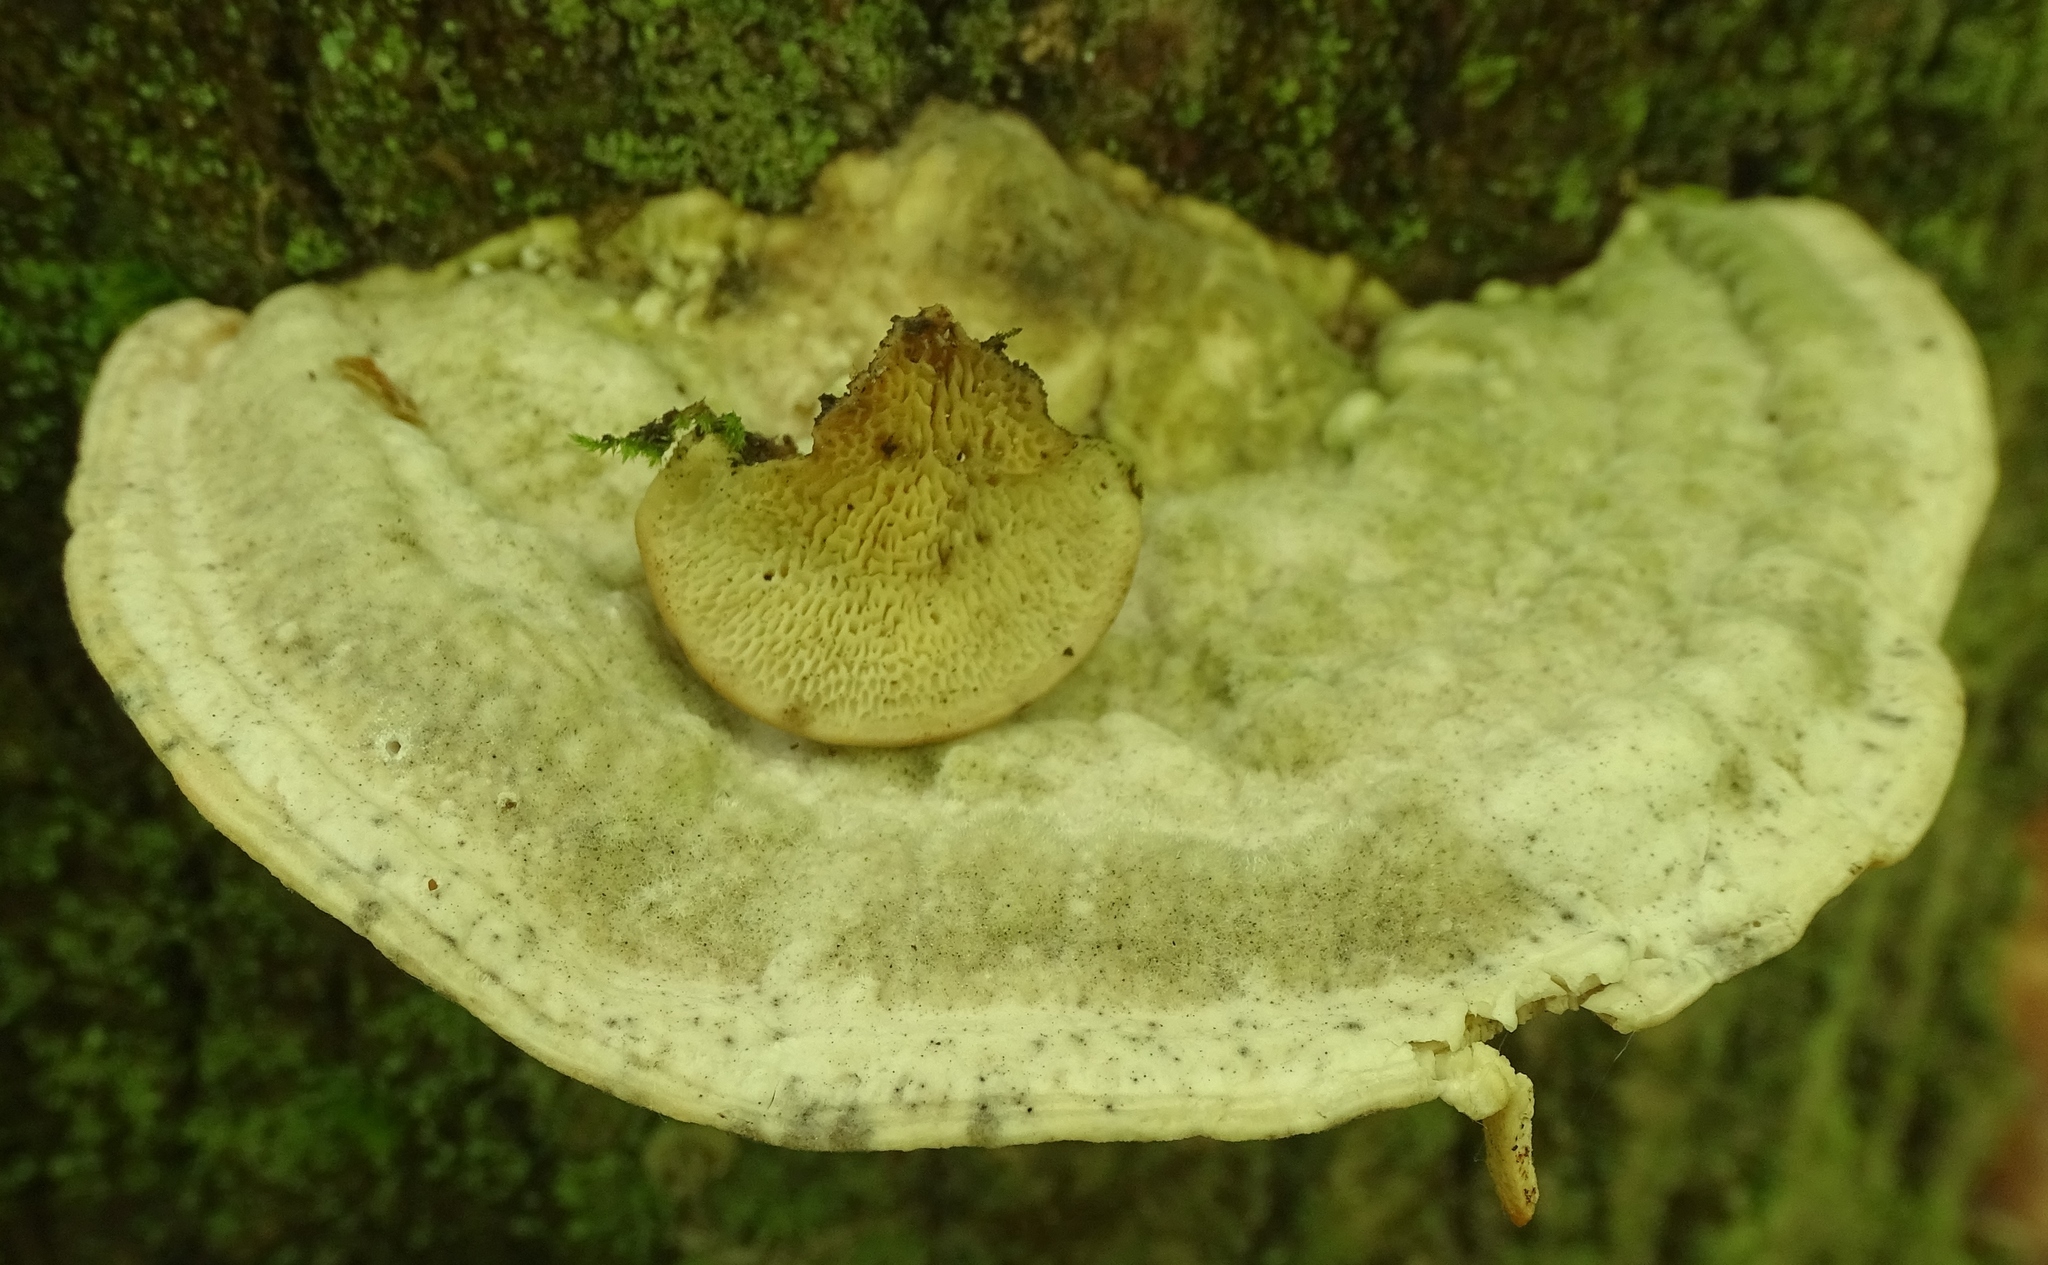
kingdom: Fungi
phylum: Basidiomycota
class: Agaricomycetes
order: Polyporales
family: Polyporaceae
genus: Trametes
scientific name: Trametes gibbosa
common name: Lumpy bracket
